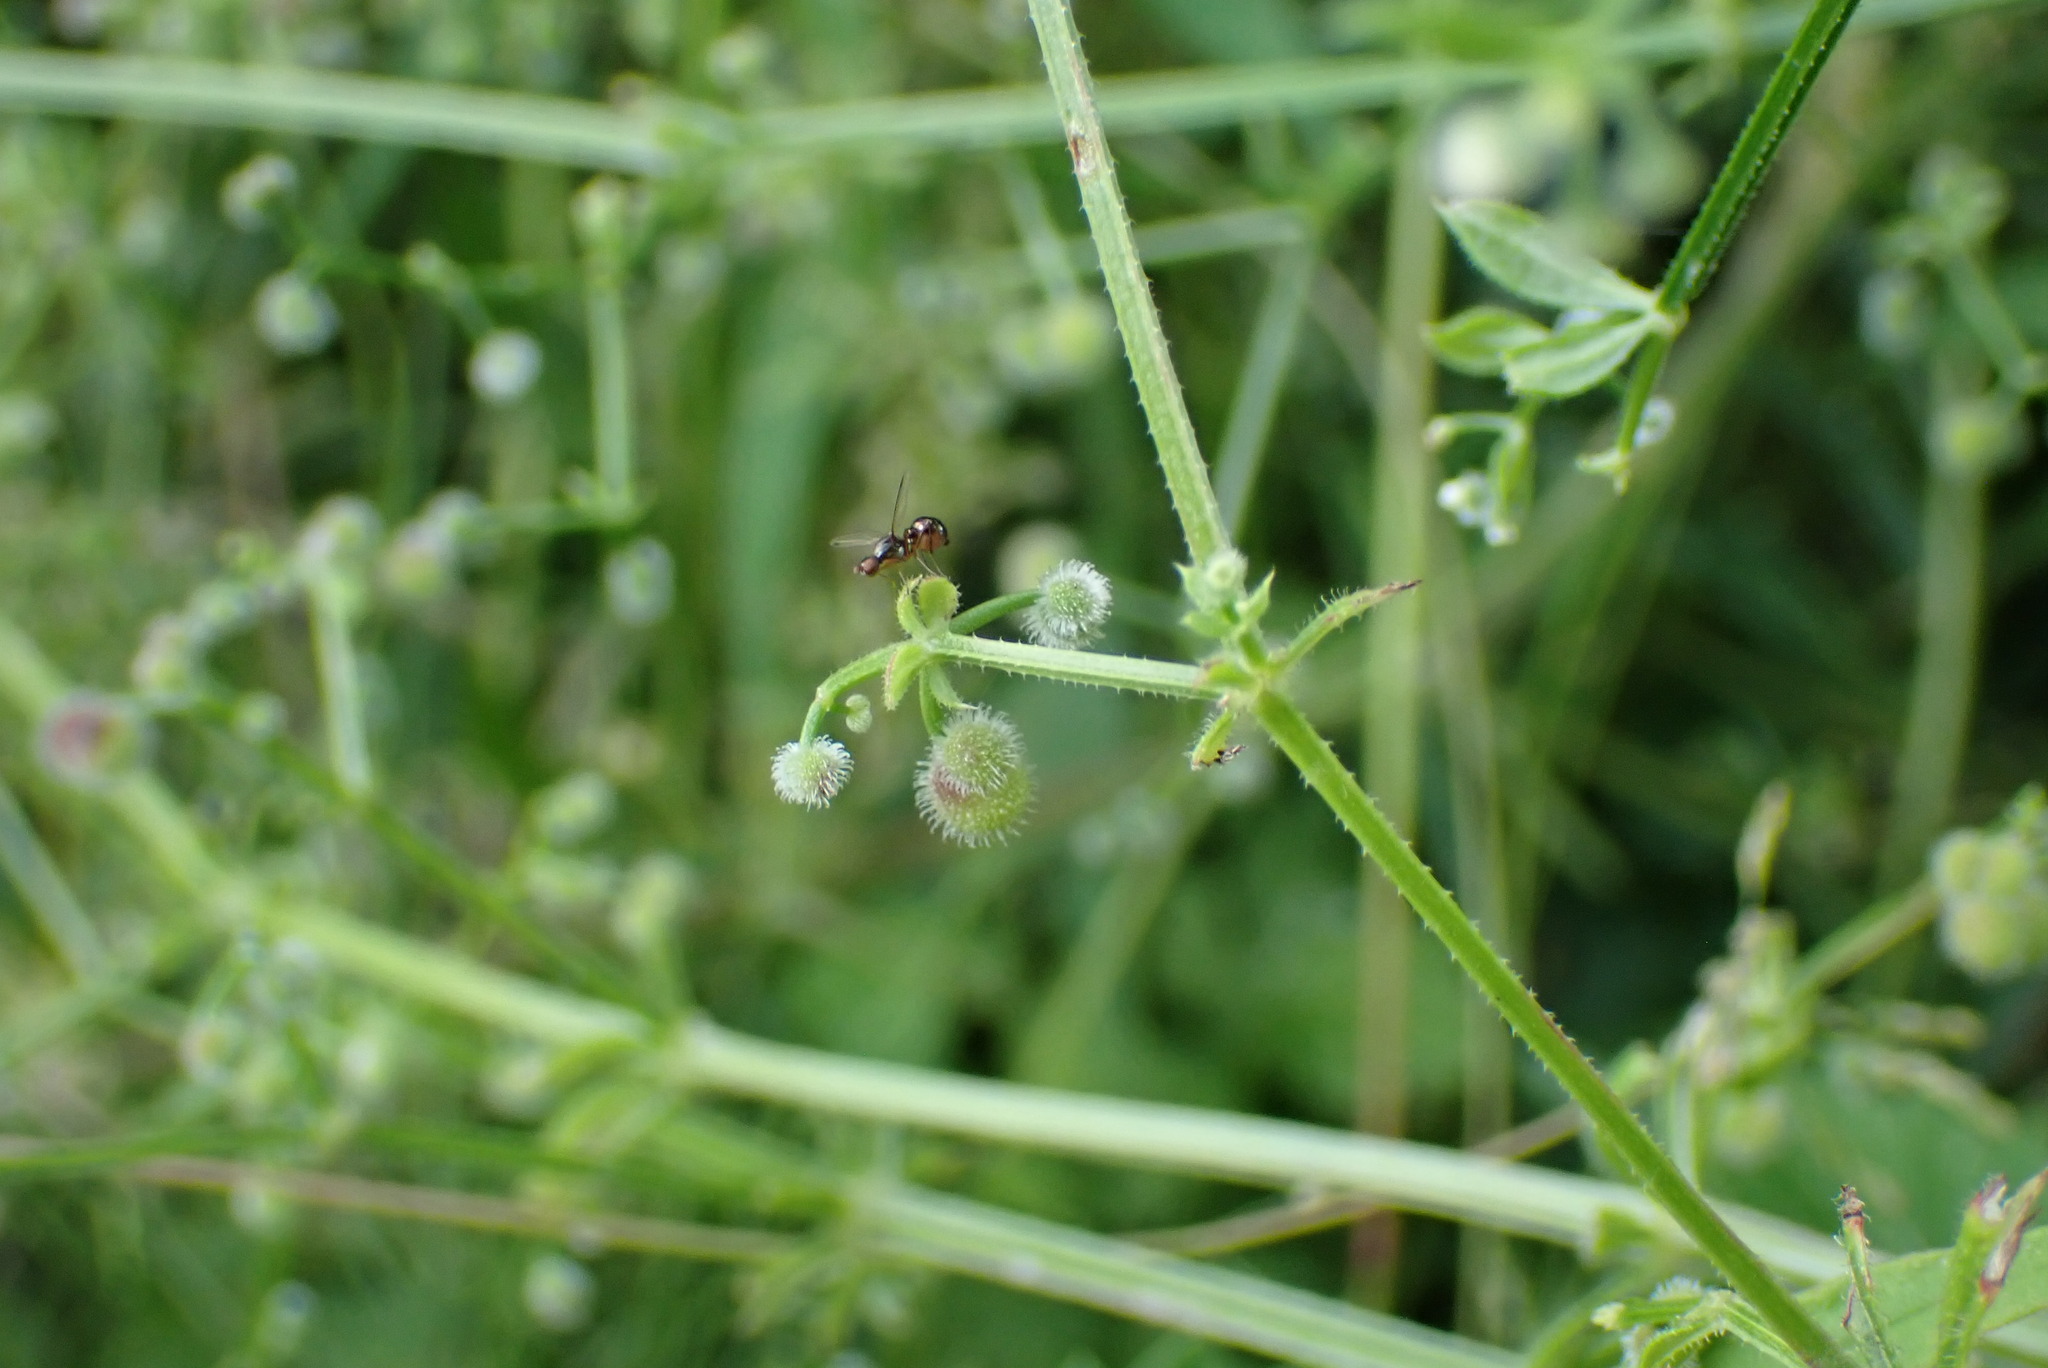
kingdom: Plantae
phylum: Tracheophyta
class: Magnoliopsida
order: Gentianales
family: Rubiaceae
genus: Galium
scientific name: Galium aparine
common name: Cleavers
